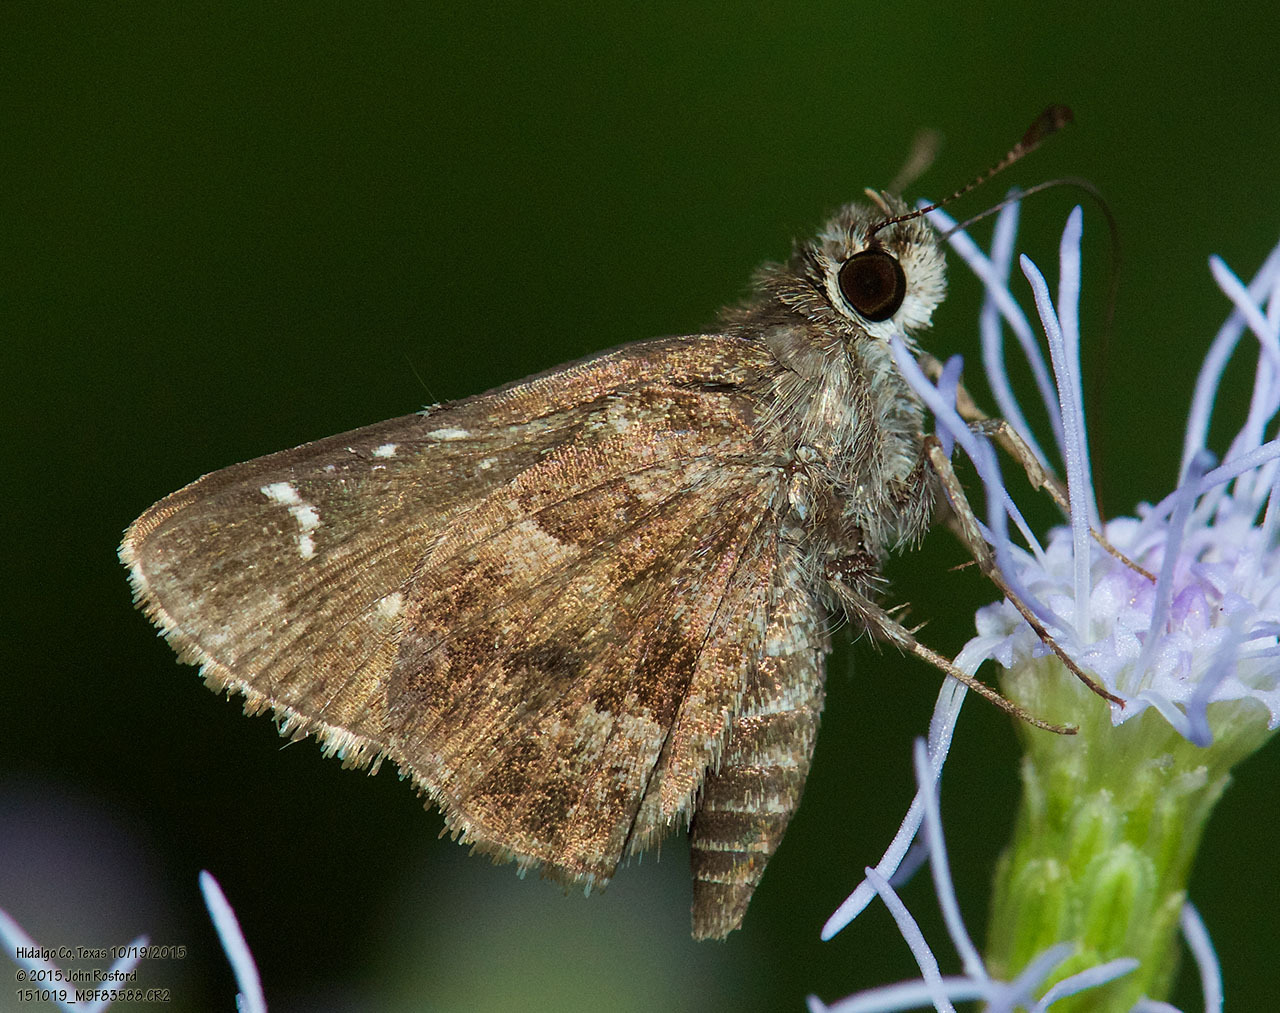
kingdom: Animalia
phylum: Arthropoda
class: Insecta
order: Lepidoptera
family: Hesperiidae
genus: Mastor
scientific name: Mastor nysa
